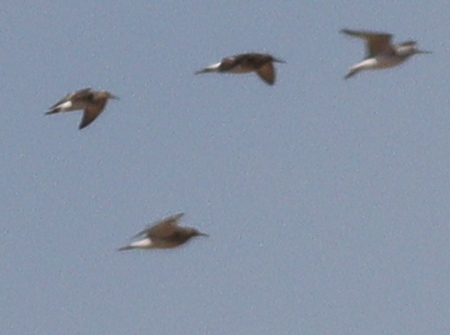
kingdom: Animalia
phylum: Chordata
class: Aves
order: Charadriiformes
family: Scolopacidae
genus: Calidris
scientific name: Calidris pugnax
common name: Ruff
